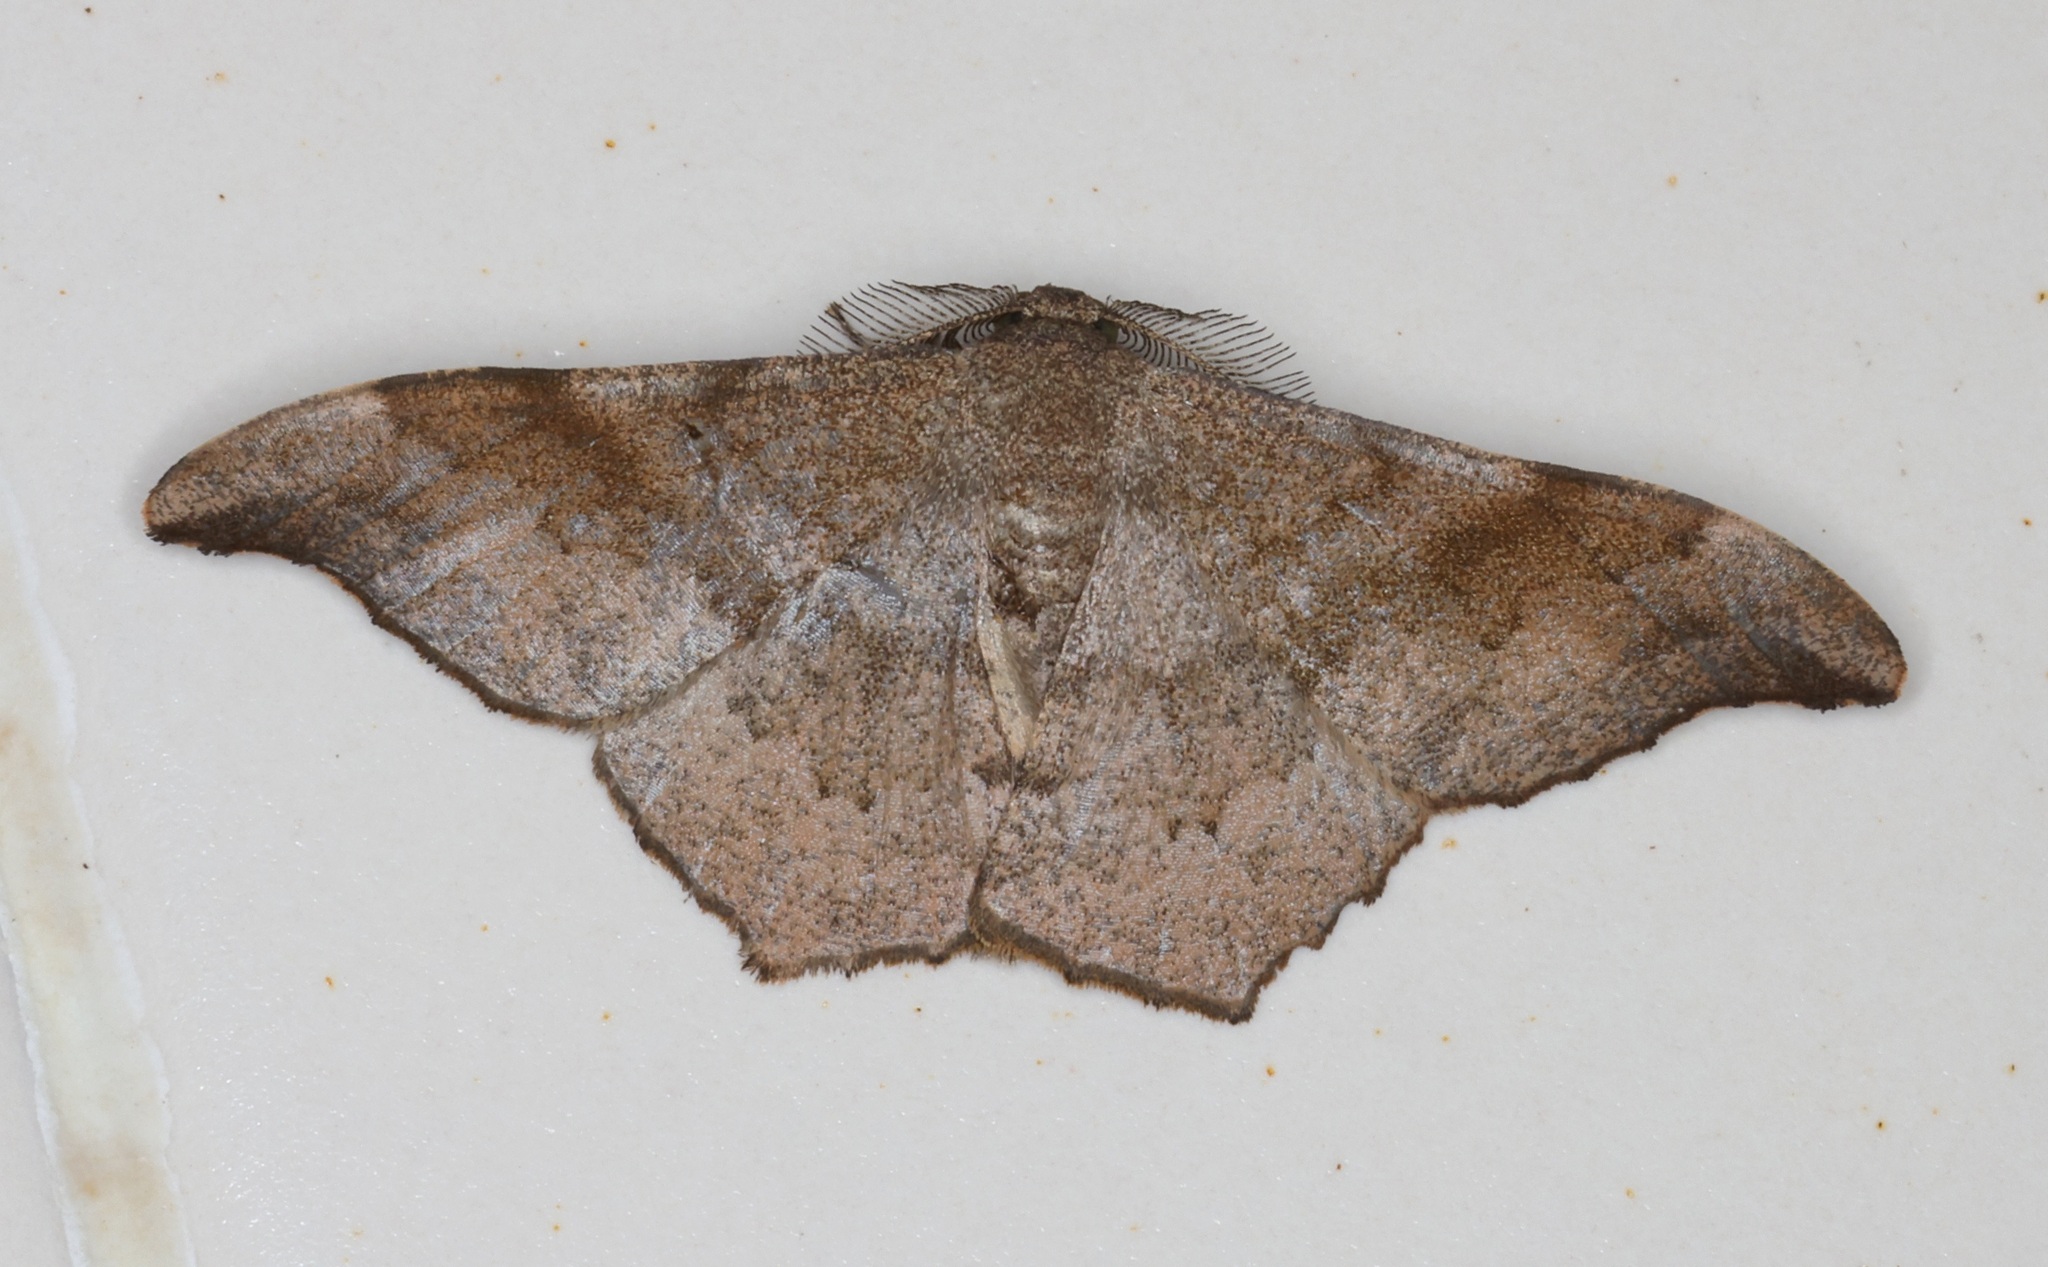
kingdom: Animalia
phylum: Arthropoda
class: Insecta
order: Lepidoptera
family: Geometridae
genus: Hyposidra
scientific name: Hyposidra talaca
